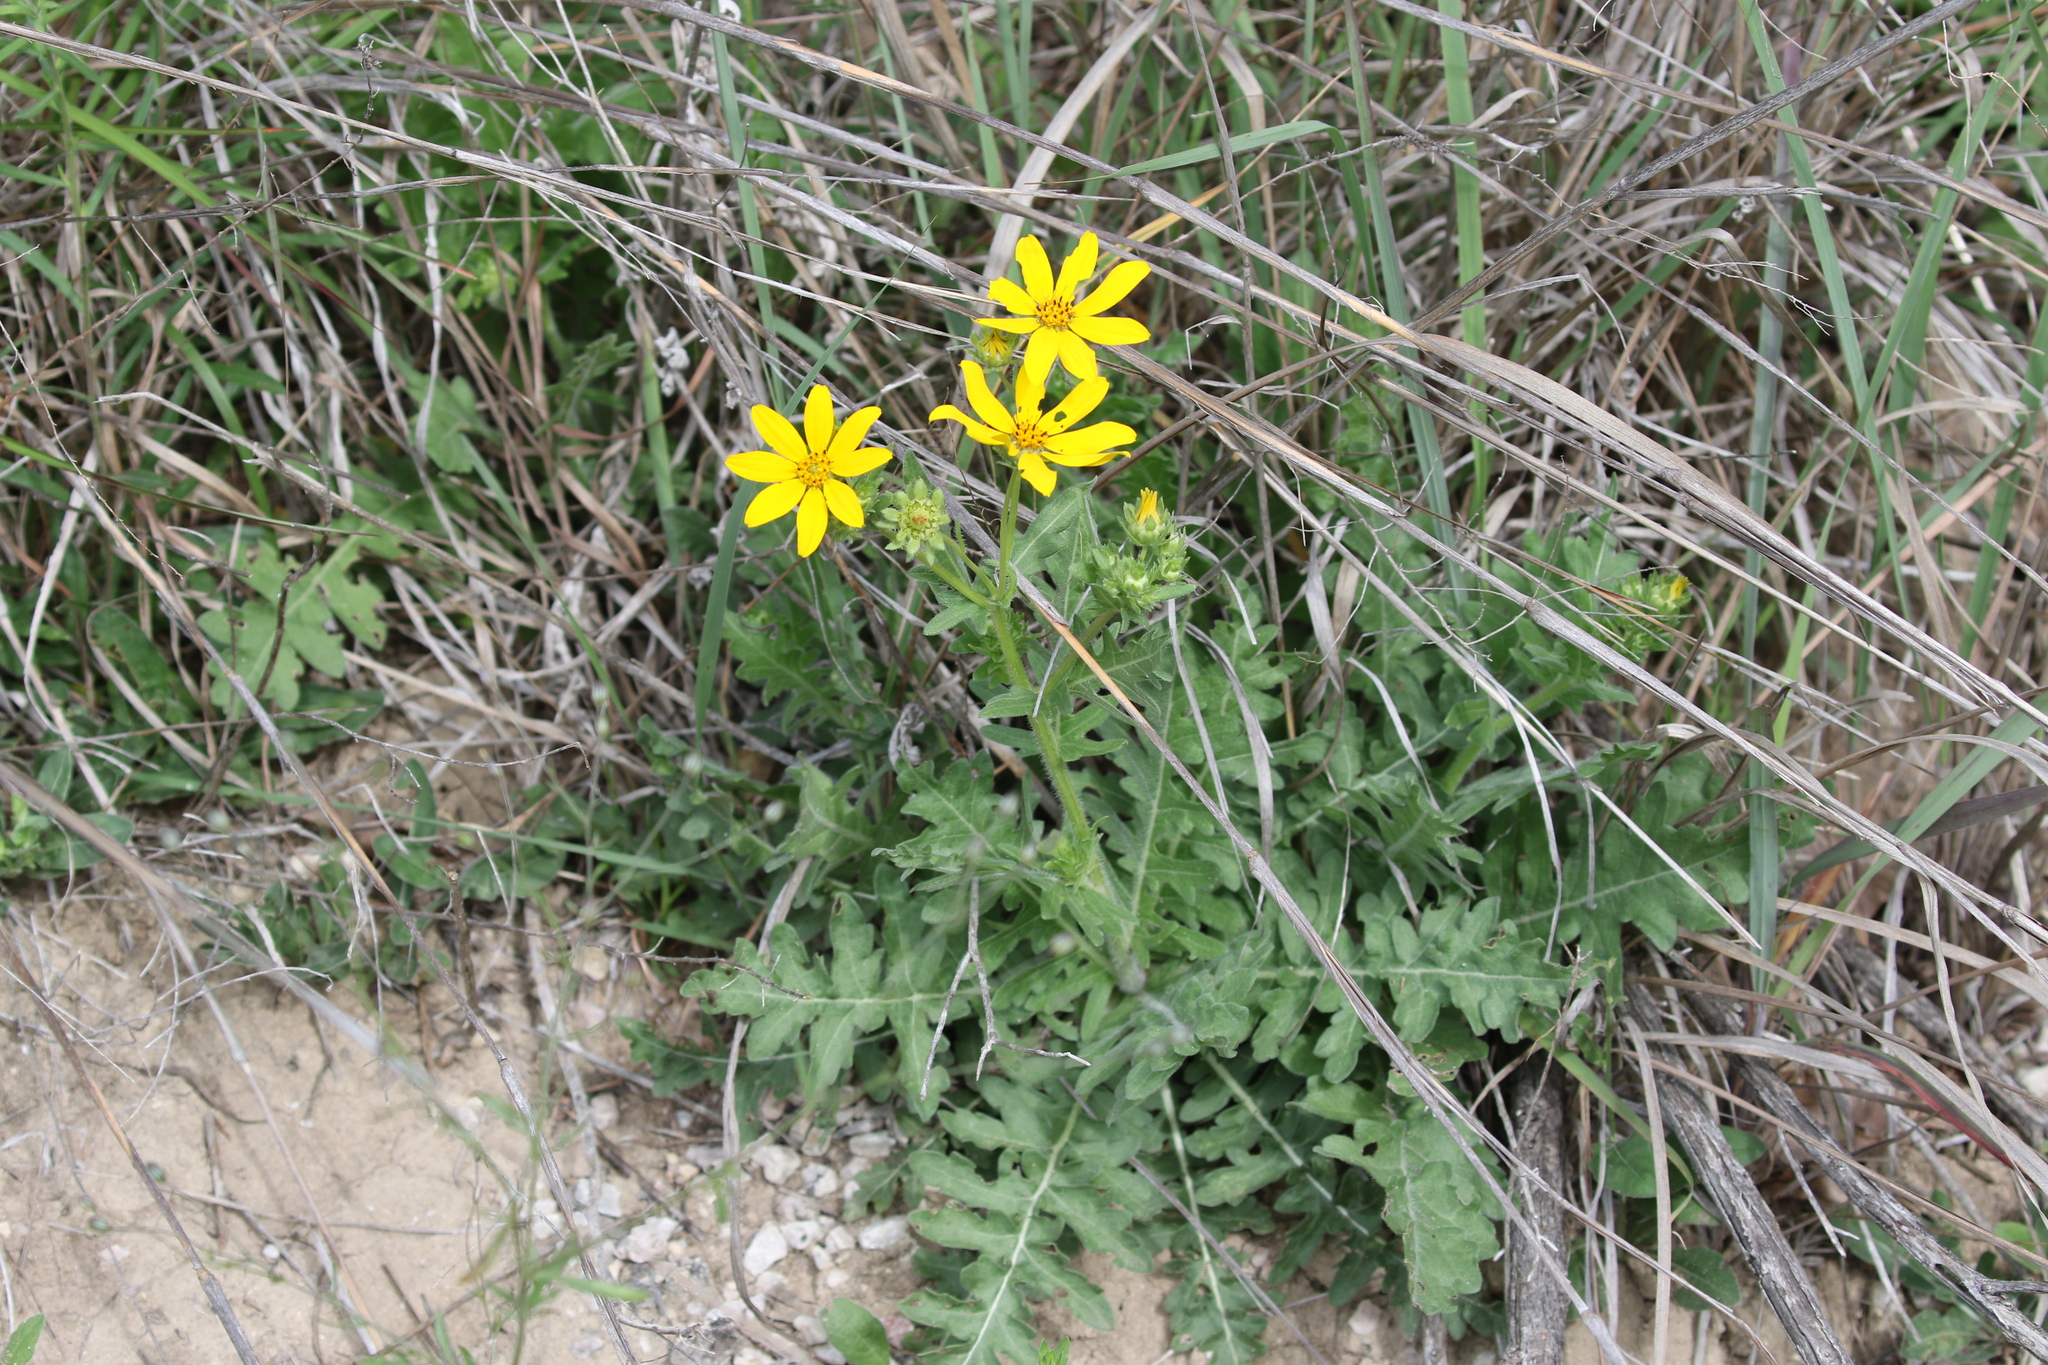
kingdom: Plantae
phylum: Tracheophyta
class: Magnoliopsida
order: Asterales
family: Asteraceae
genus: Engelmannia
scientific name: Engelmannia peristenia
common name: Engelmann's daisy
